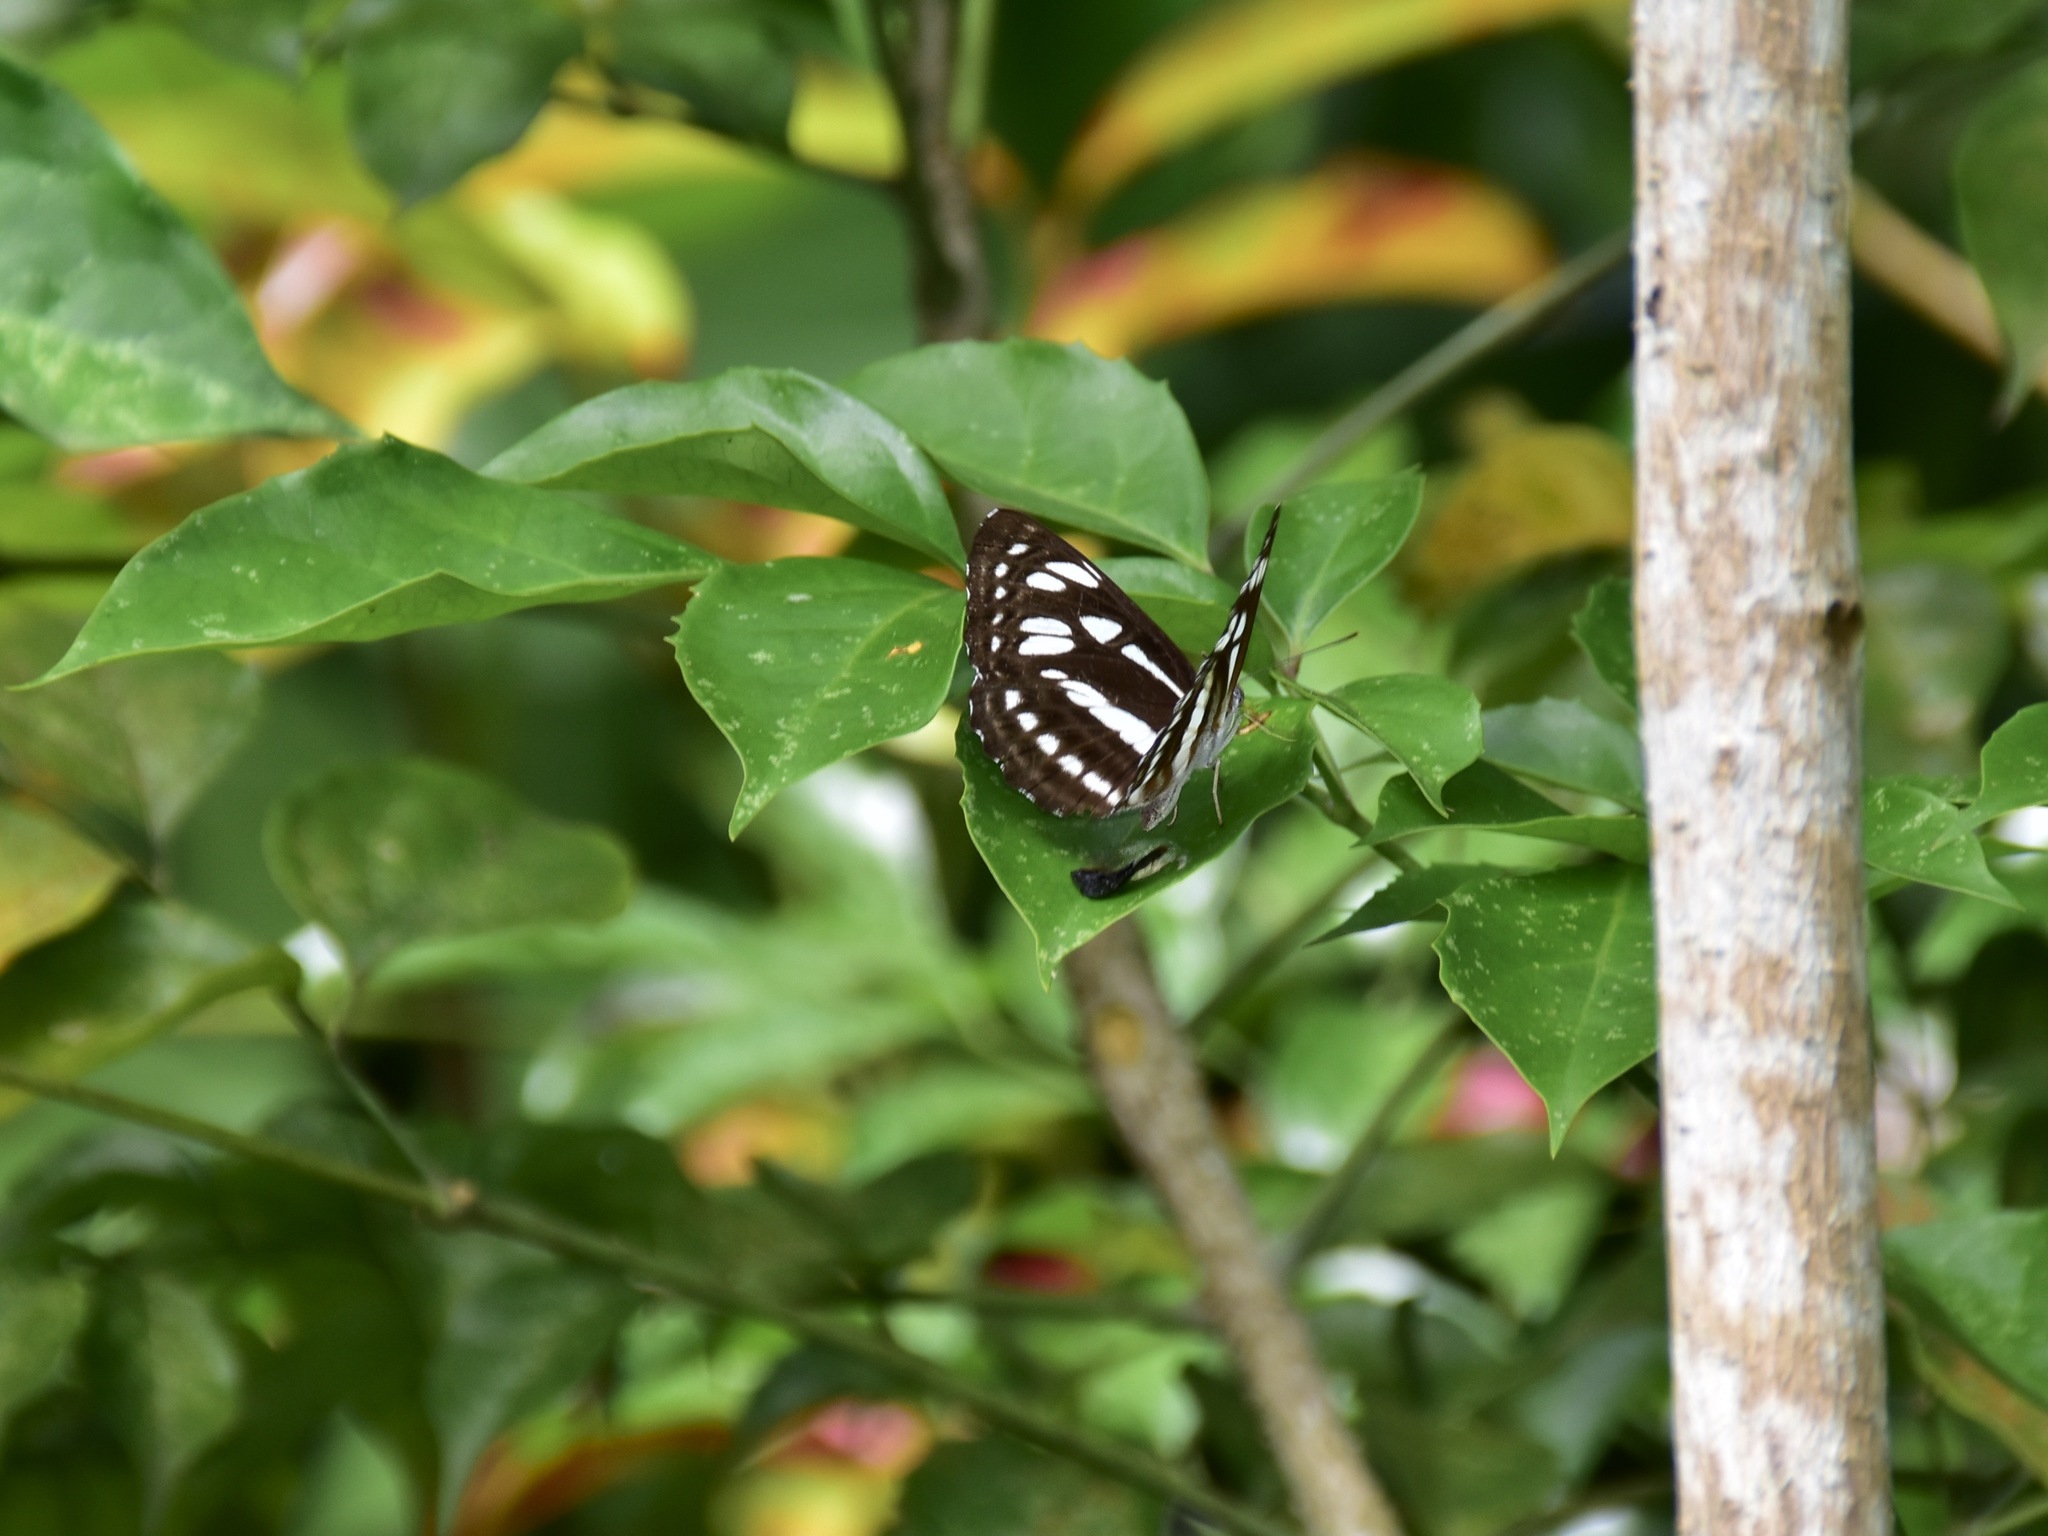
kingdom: Animalia
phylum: Arthropoda
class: Insecta
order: Lepidoptera
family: Nymphalidae
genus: Phaedyma
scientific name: Phaedyma columella
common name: Short banded sailer
